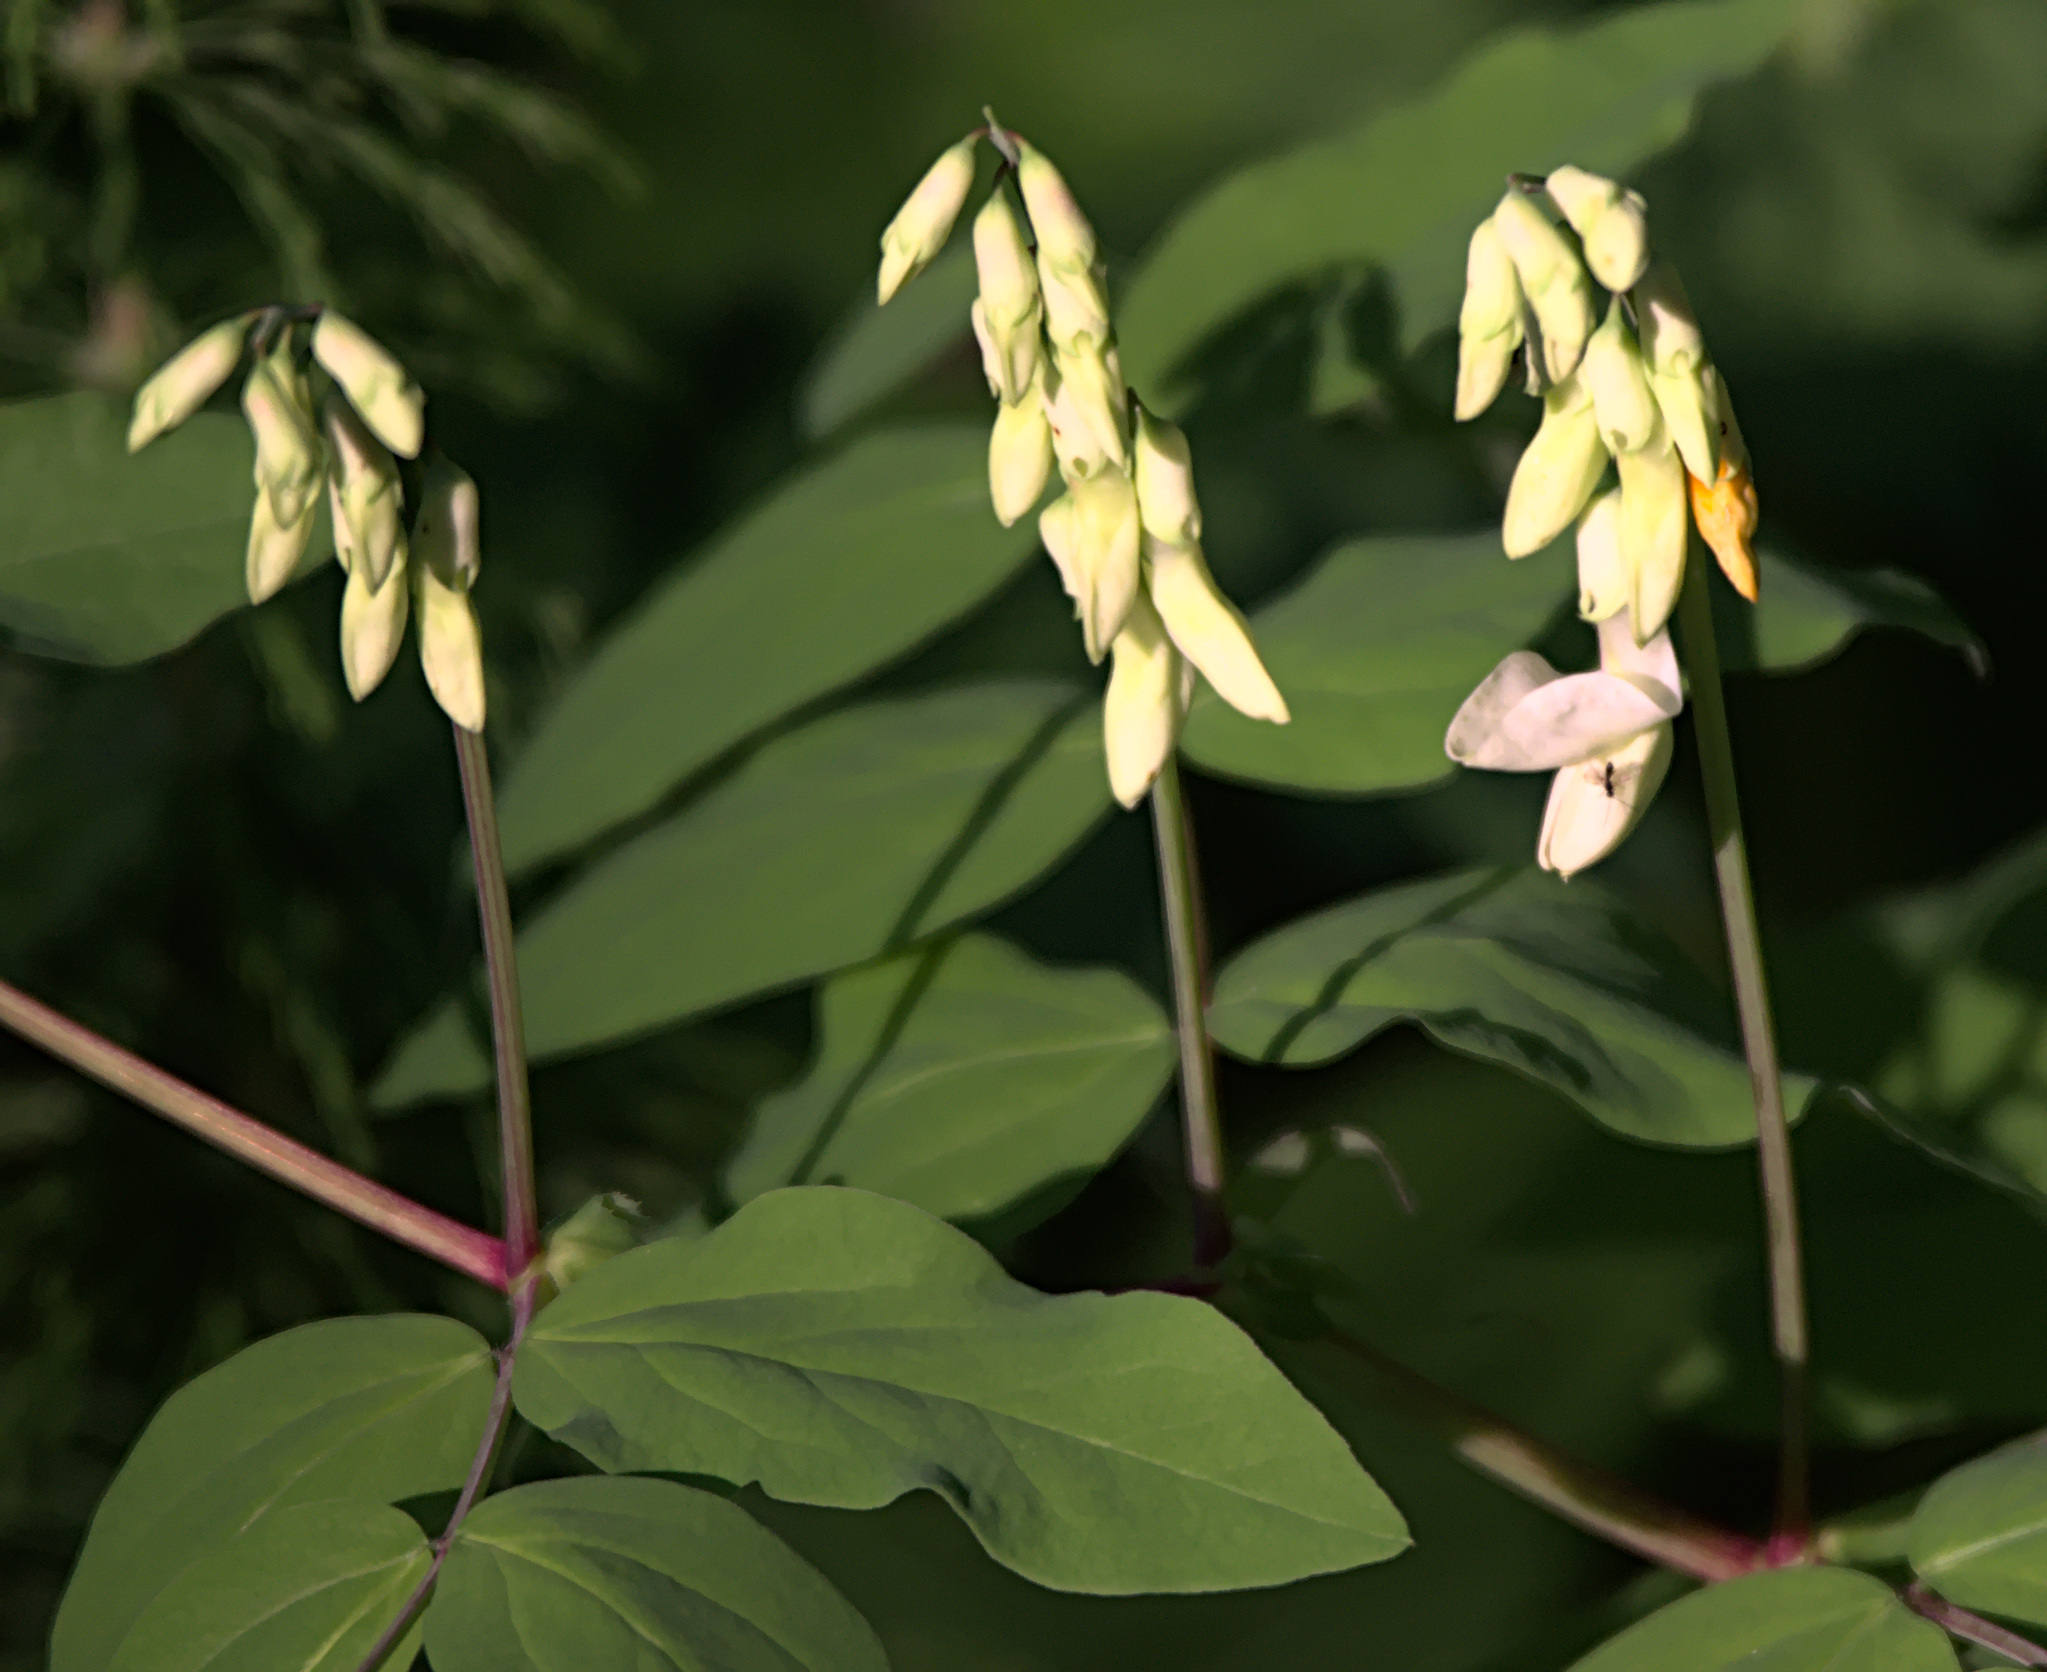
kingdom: Plantae
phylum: Tracheophyta
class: Magnoliopsida
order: Fabales
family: Fabaceae
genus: Lathyrus
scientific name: Lathyrus gmelinii
